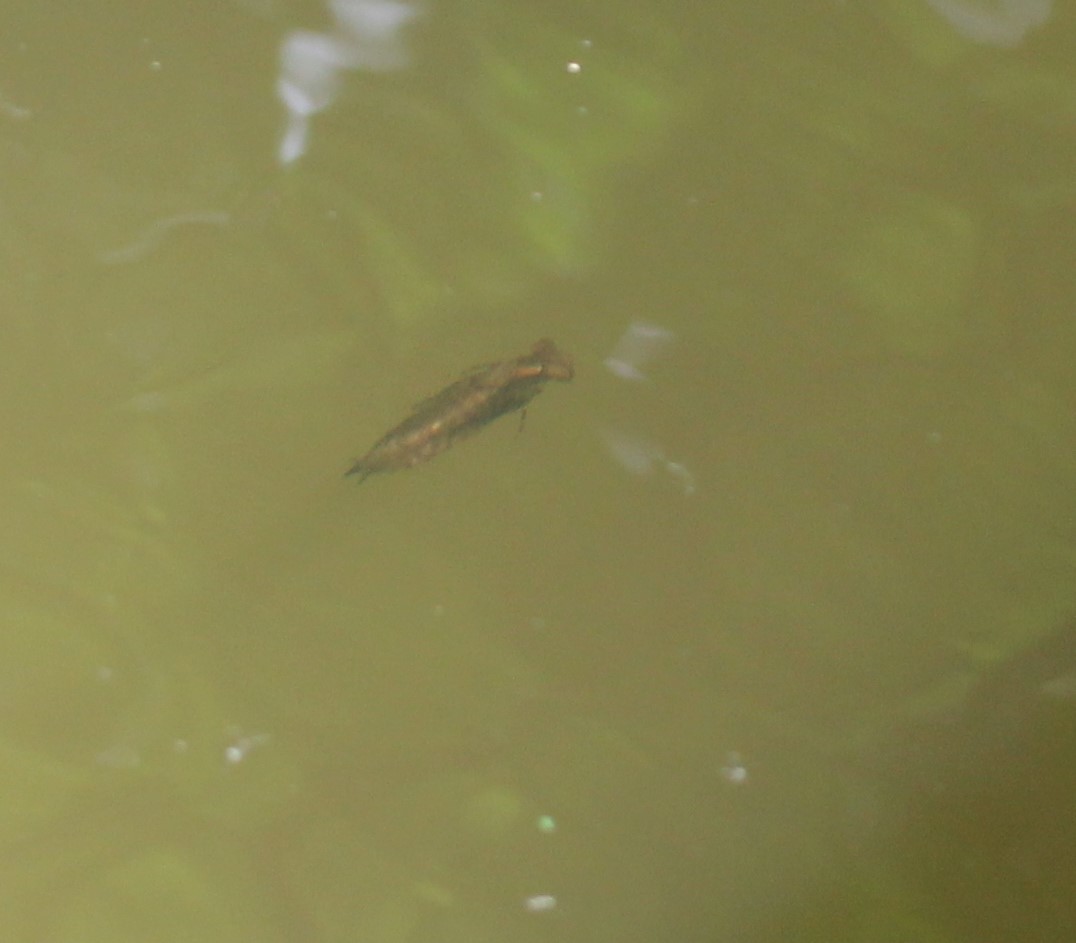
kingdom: Animalia
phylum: Arthropoda
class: Insecta
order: Odonata
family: Aeshnidae
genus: Epiaeschna
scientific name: Epiaeschna heros
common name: Swamp darner
